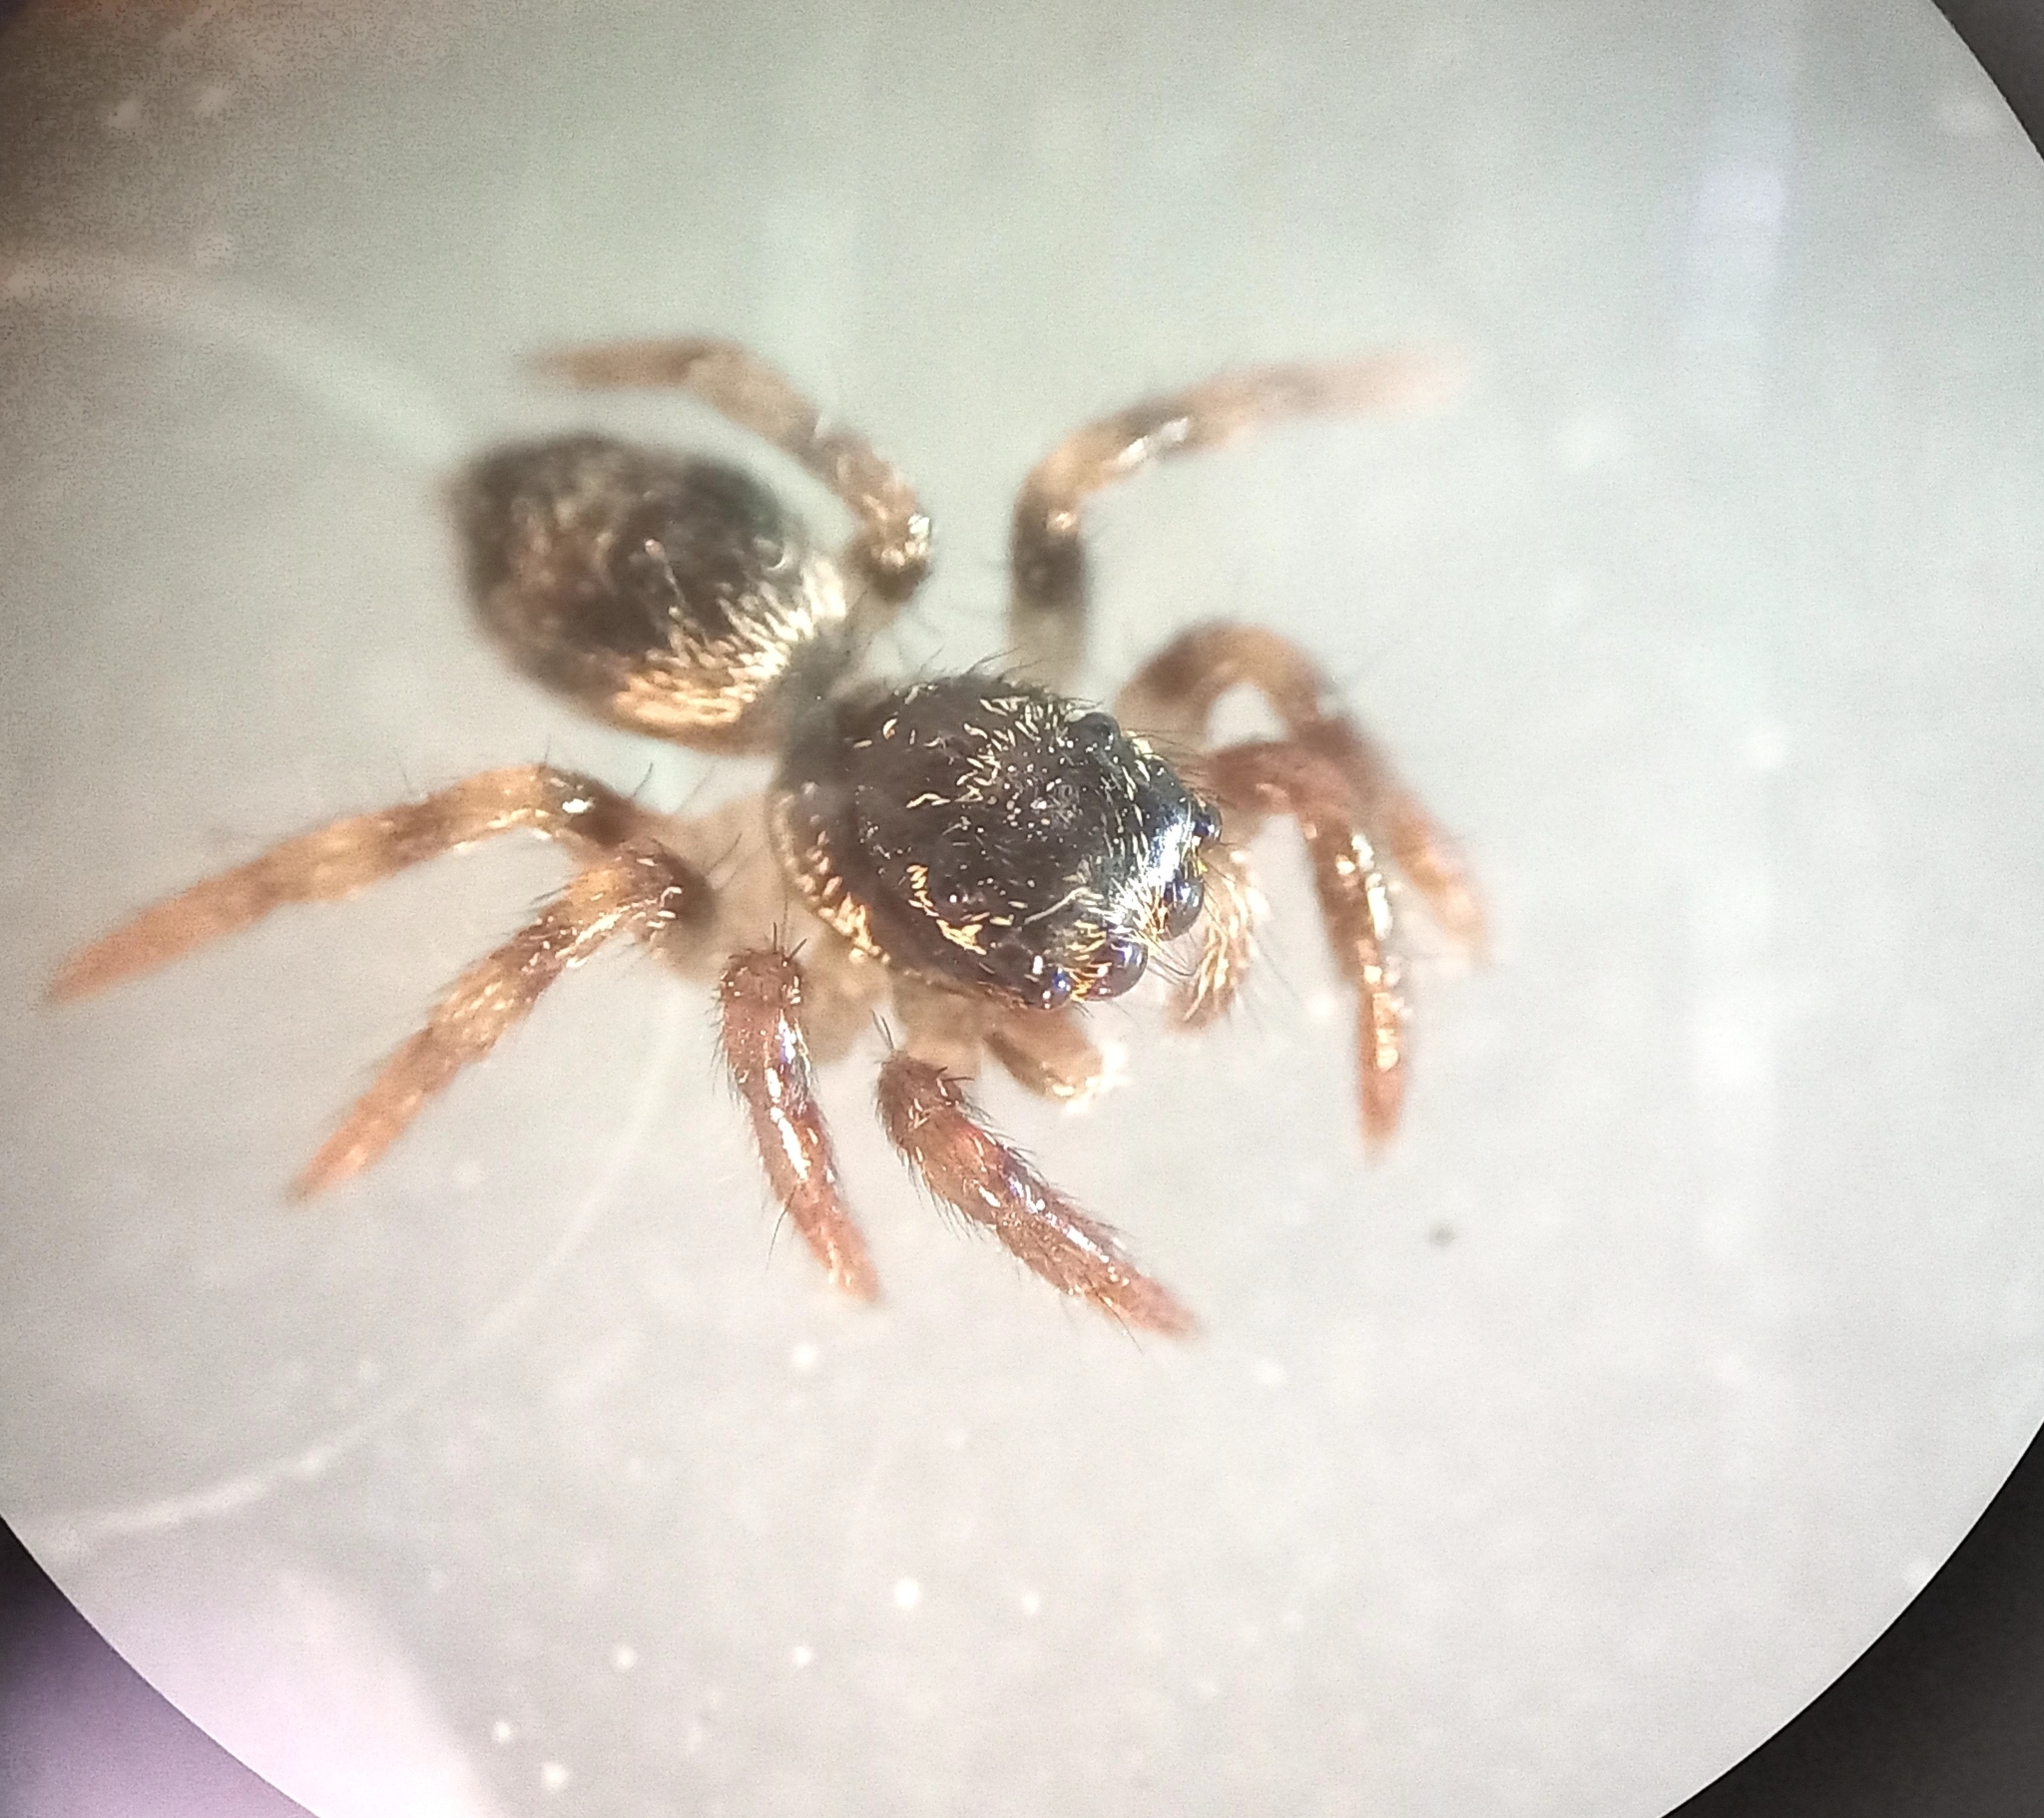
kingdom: Animalia
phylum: Arthropoda
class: Arachnida
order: Araneae
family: Salticidae
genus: Corythalia
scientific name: Corythalia conferta
